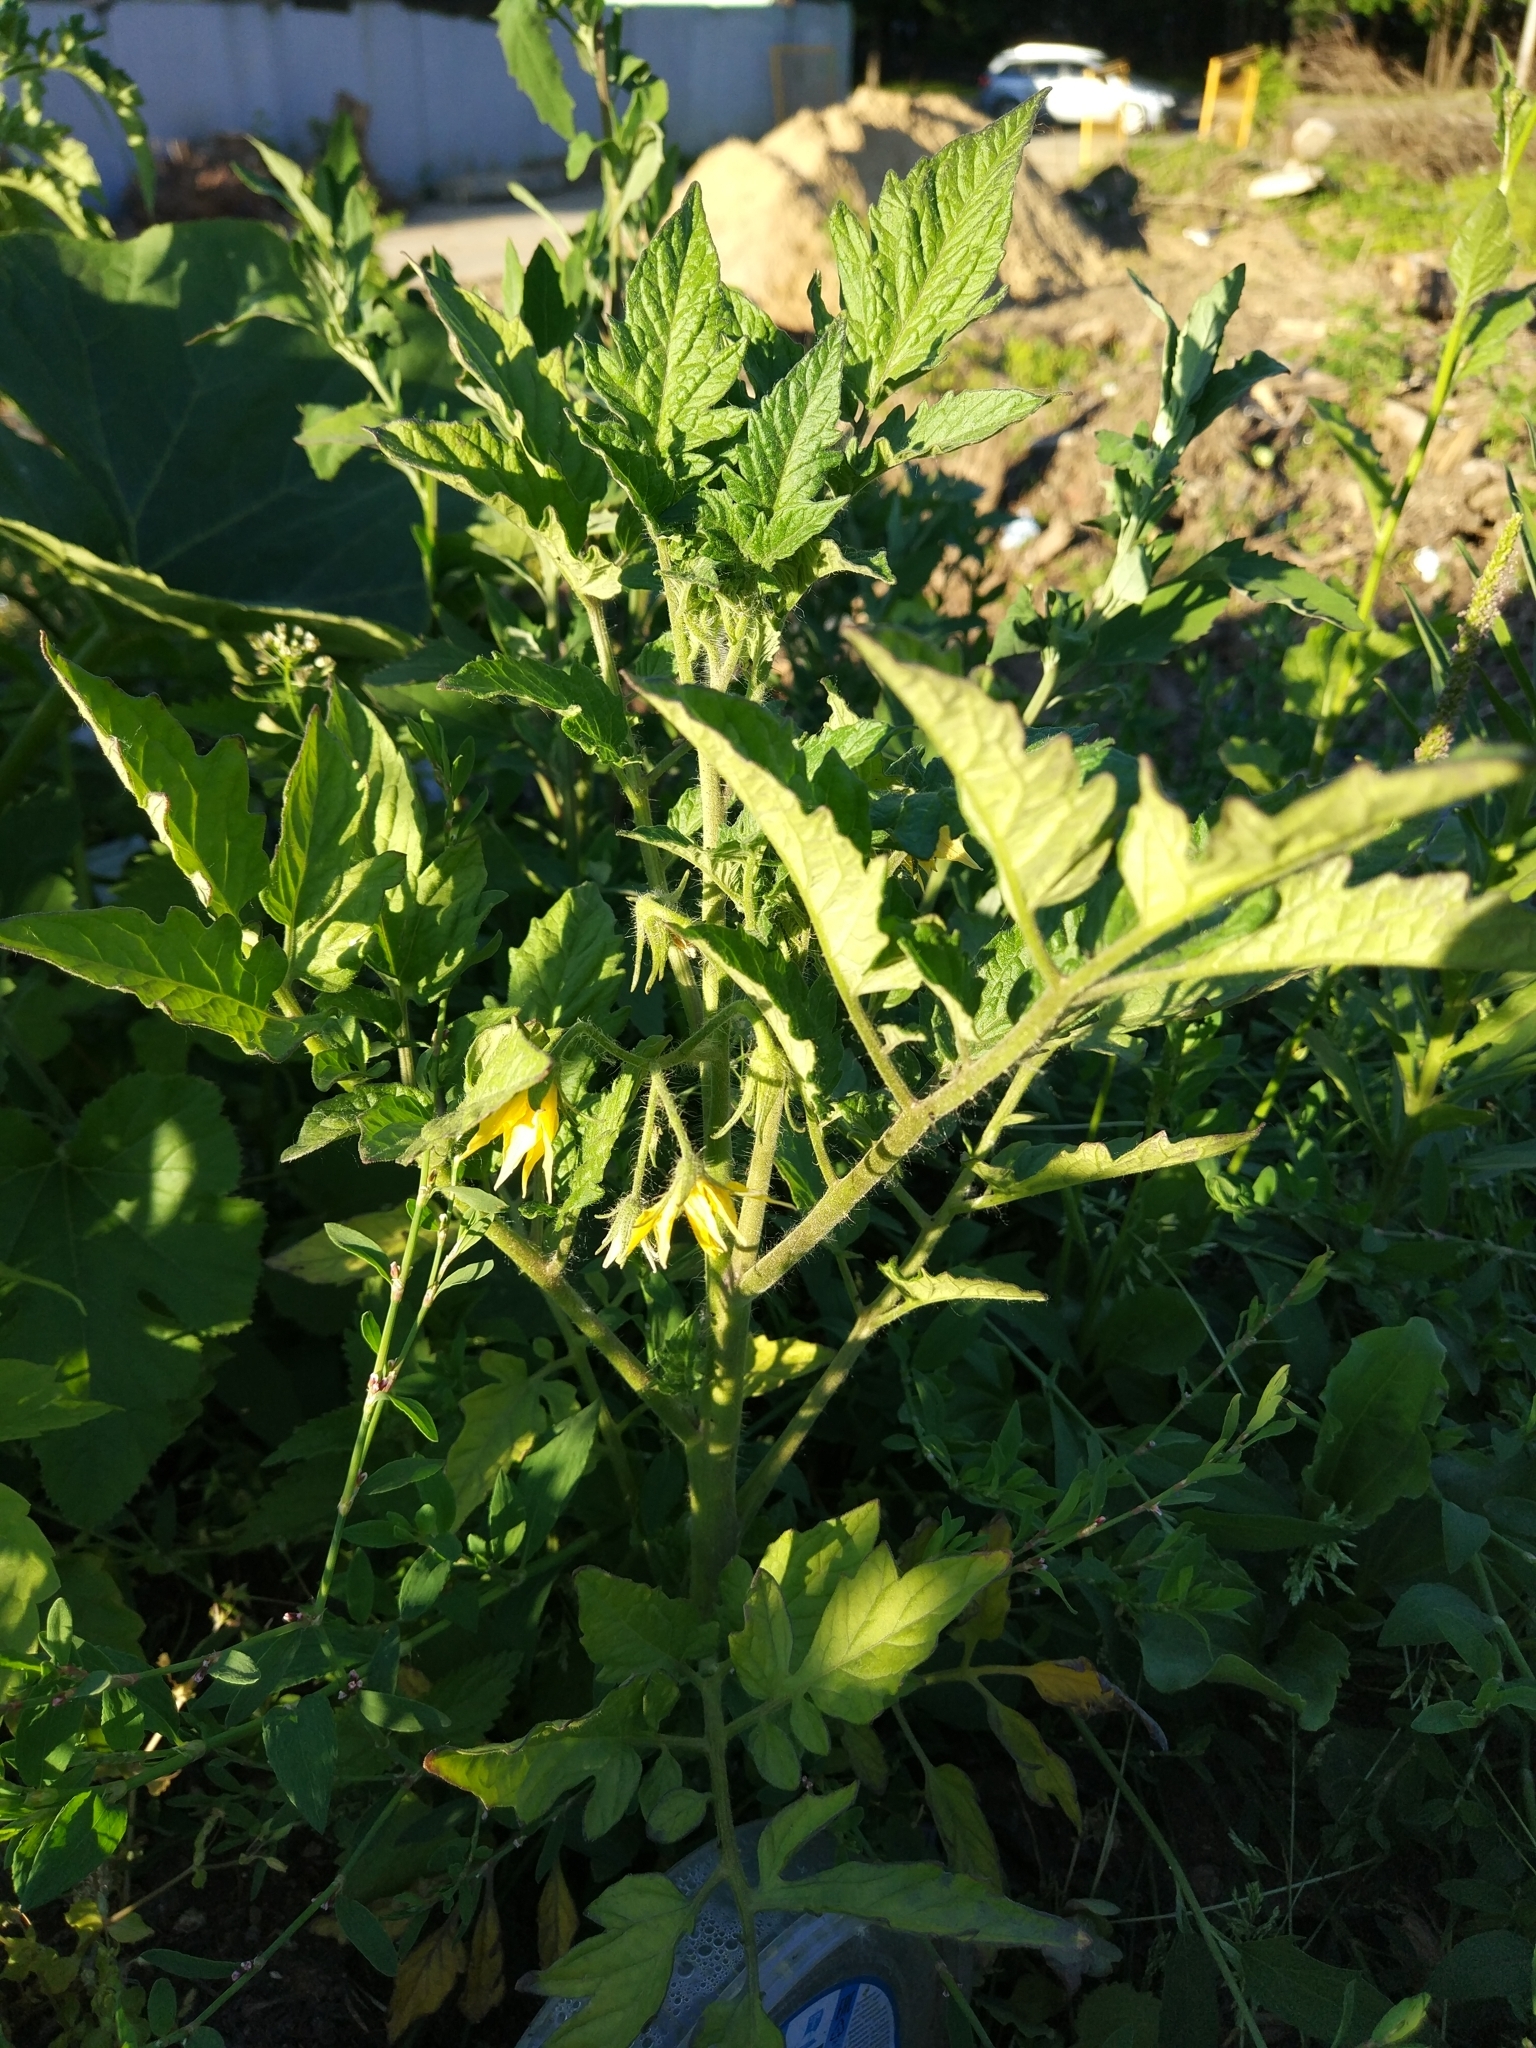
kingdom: Plantae
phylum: Tracheophyta
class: Magnoliopsida
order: Solanales
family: Solanaceae
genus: Solanum
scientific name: Solanum lycopersicum
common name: Garden tomato
